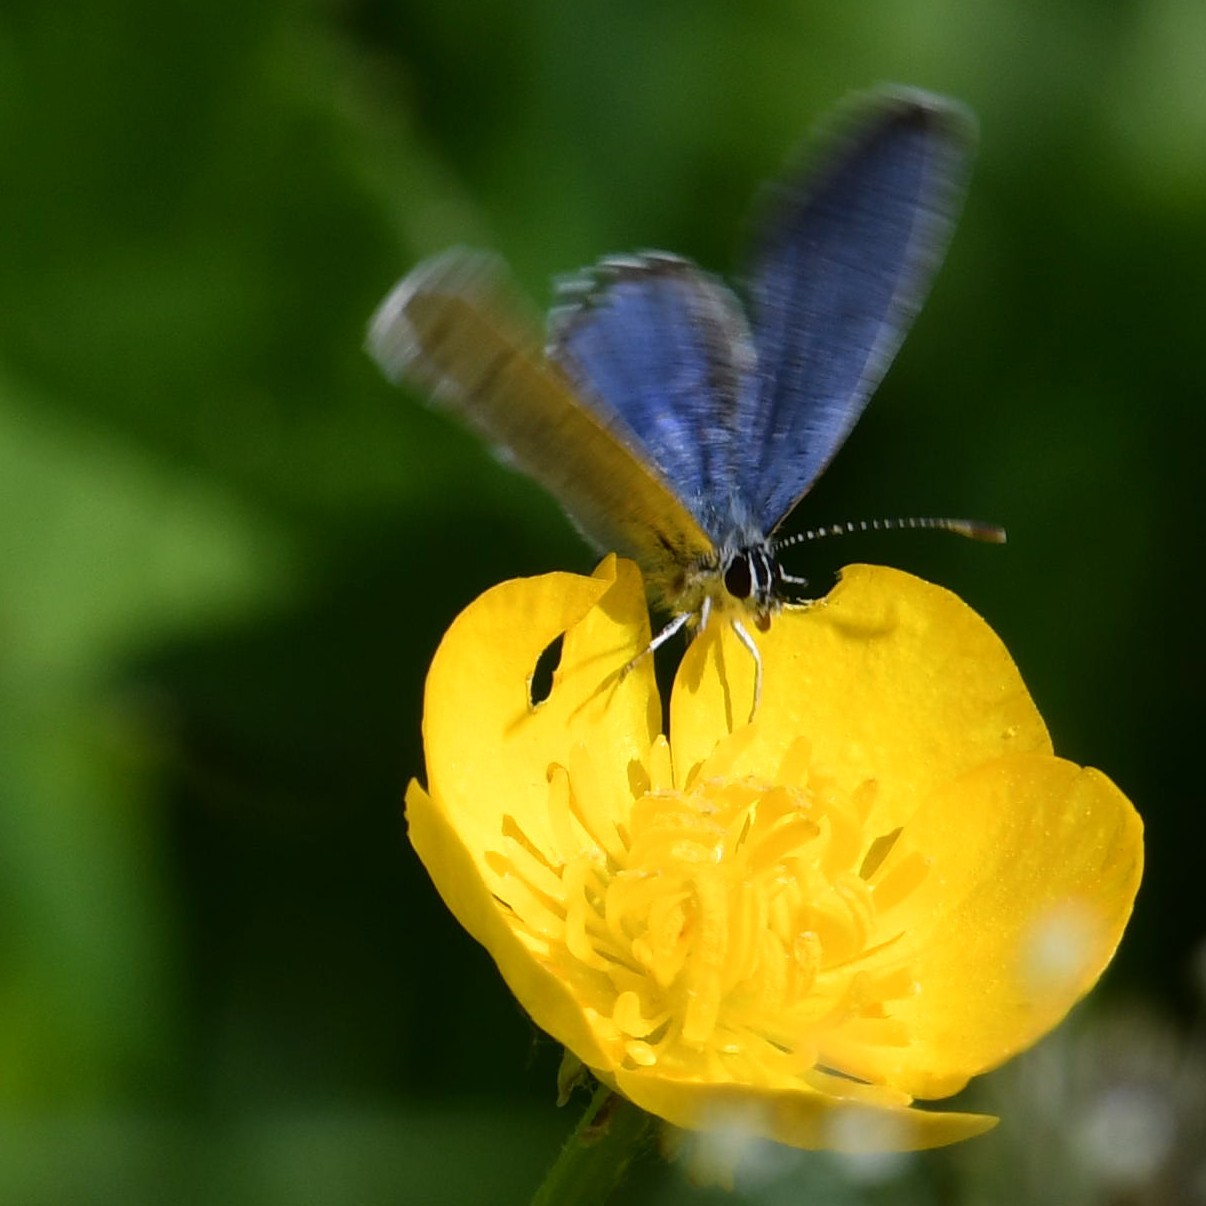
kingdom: Animalia
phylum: Arthropoda
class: Insecta
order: Lepidoptera
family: Lycaenidae
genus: Elkalyce
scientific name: Elkalyce argiades
